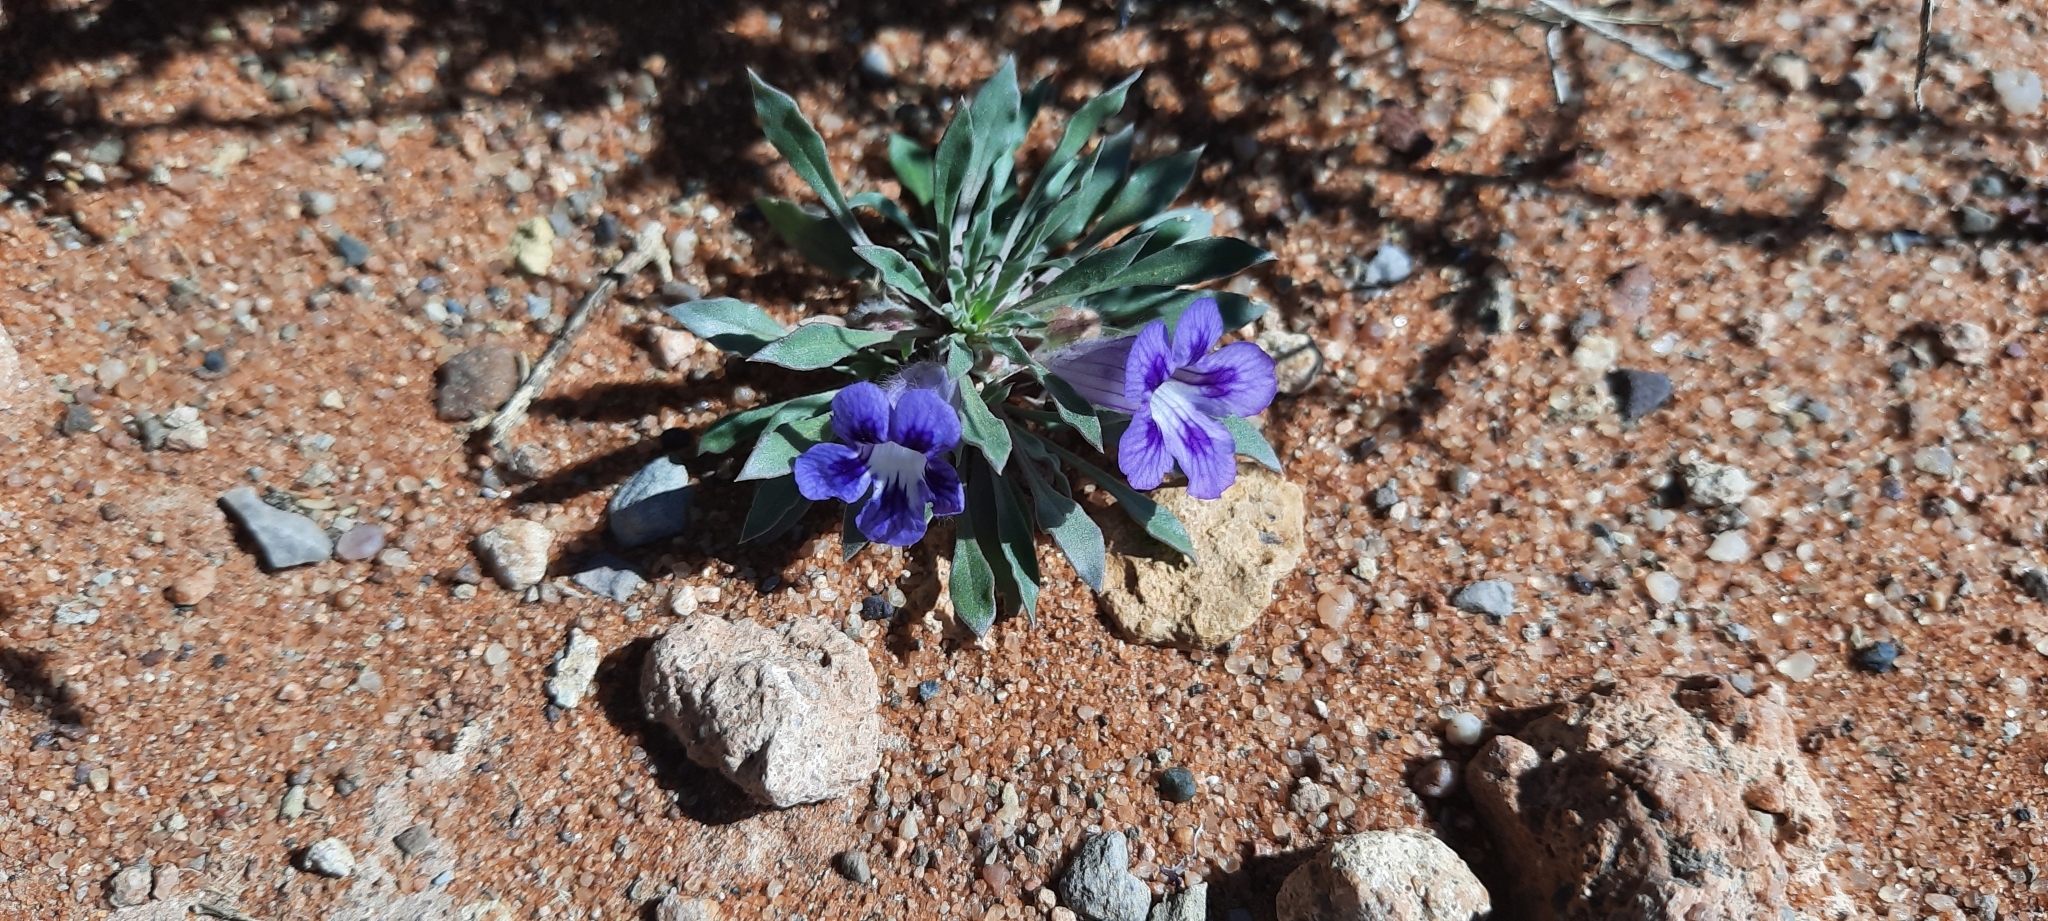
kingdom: Plantae
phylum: Tracheophyta
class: Magnoliopsida
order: Lamiales
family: Scrophulariaceae
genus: Aptosimum
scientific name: Aptosimum indivisum
